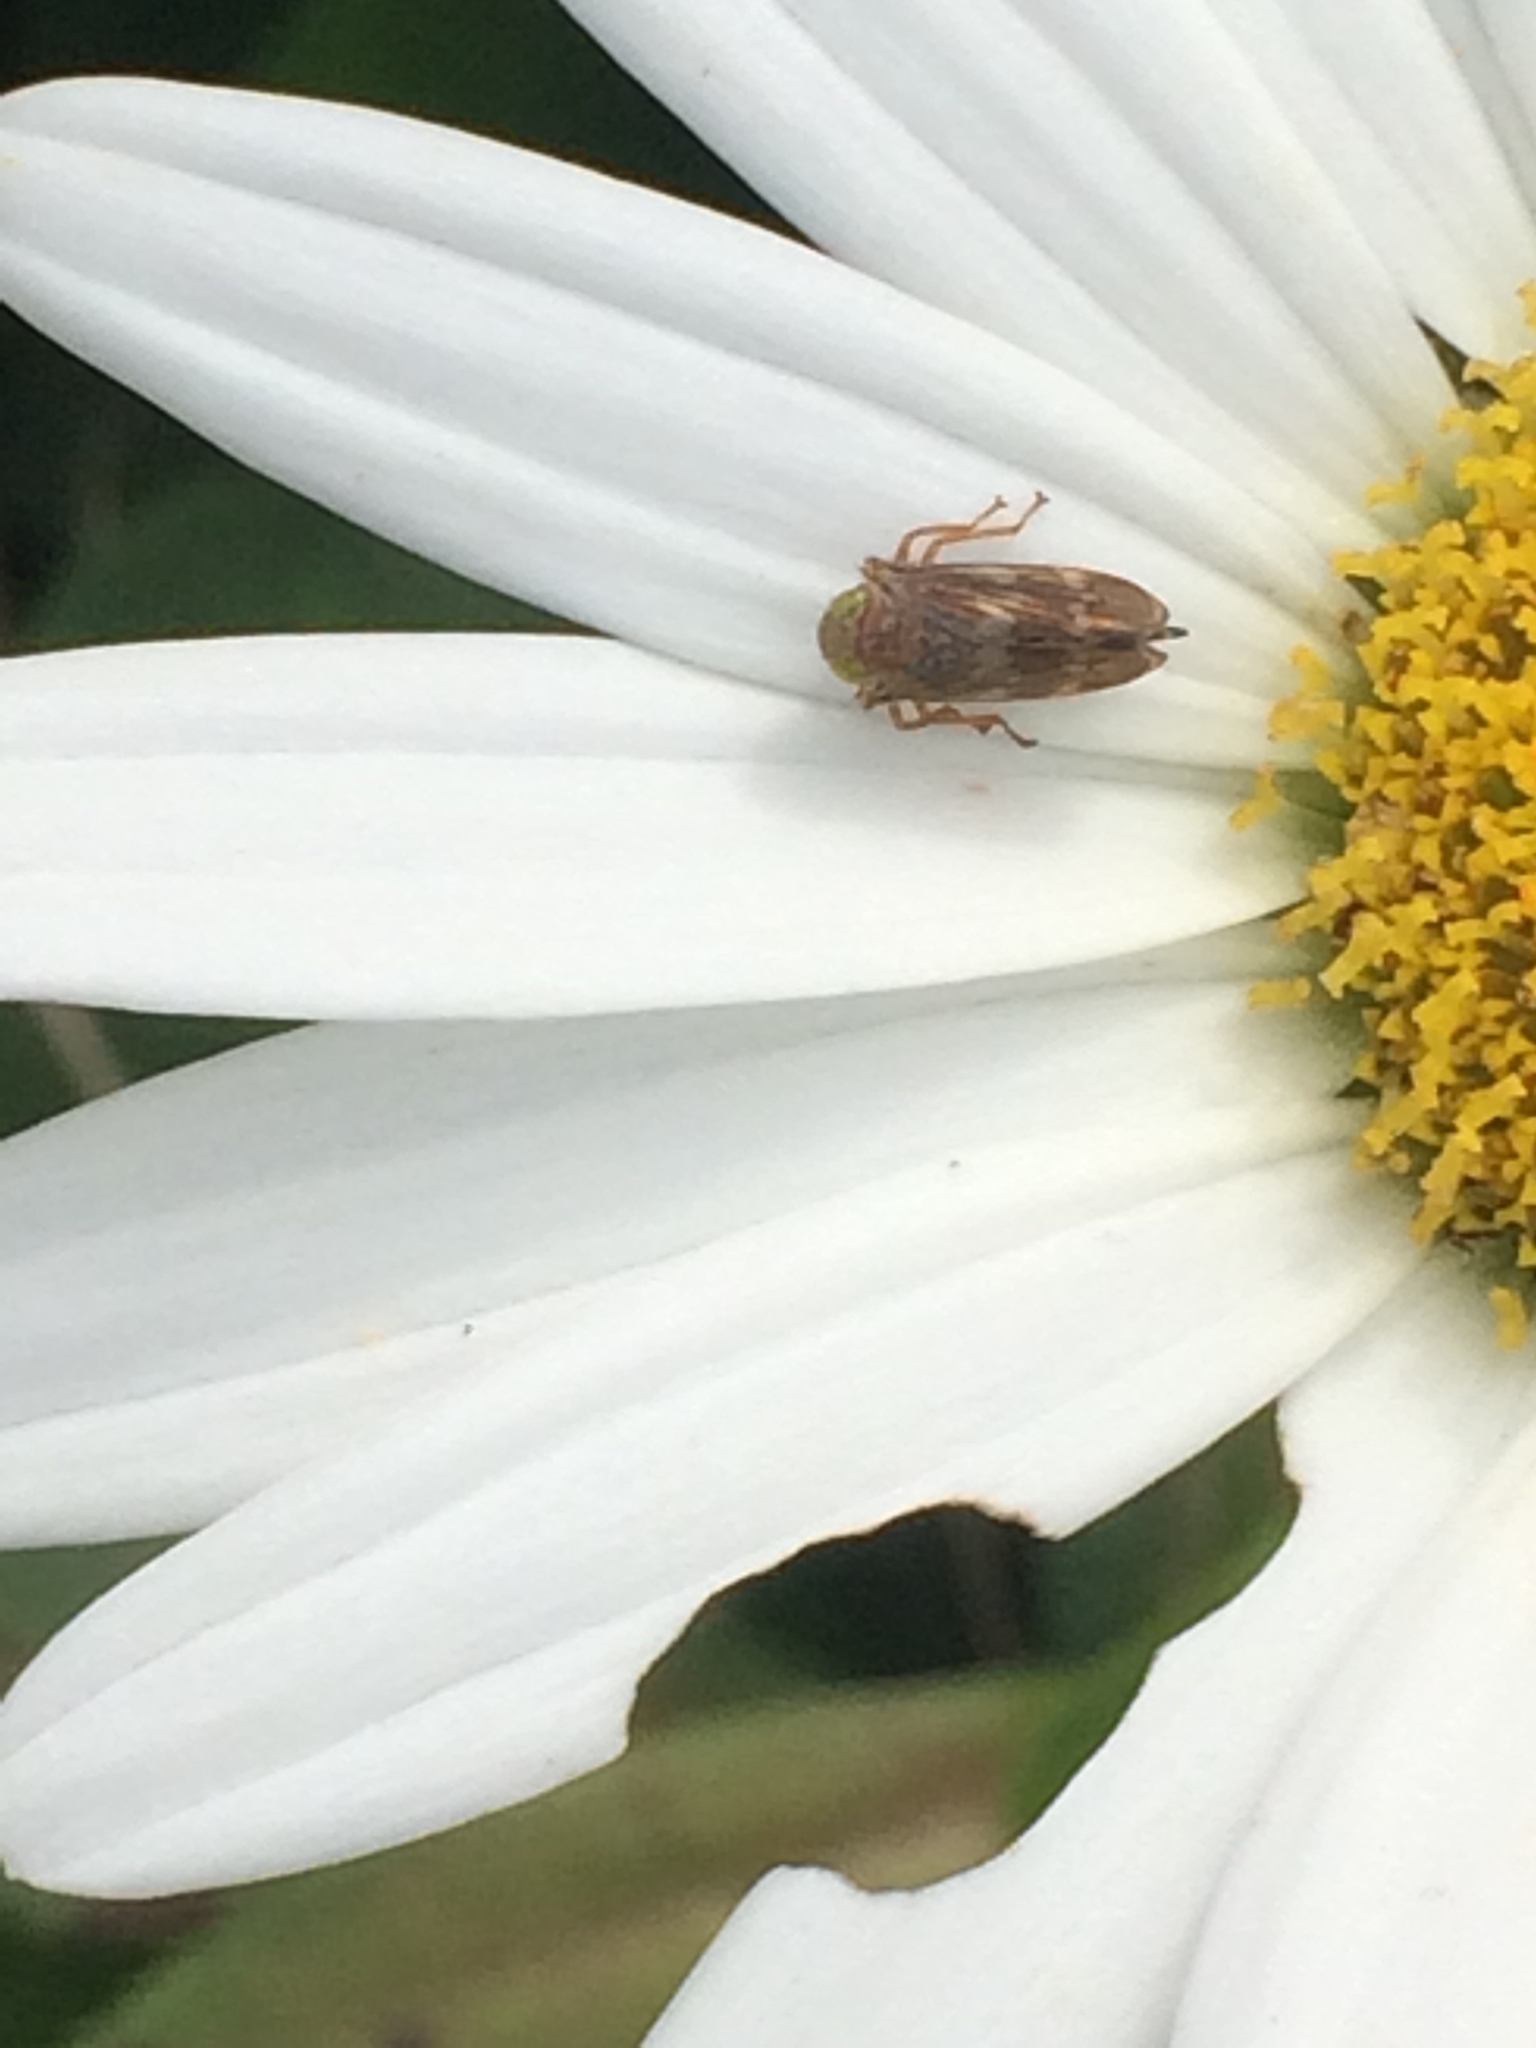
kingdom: Animalia
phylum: Arthropoda
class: Insecta
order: Hemiptera
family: Cicadellidae
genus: Jikradia
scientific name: Jikradia olitoria
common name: Coppery leafhopper
